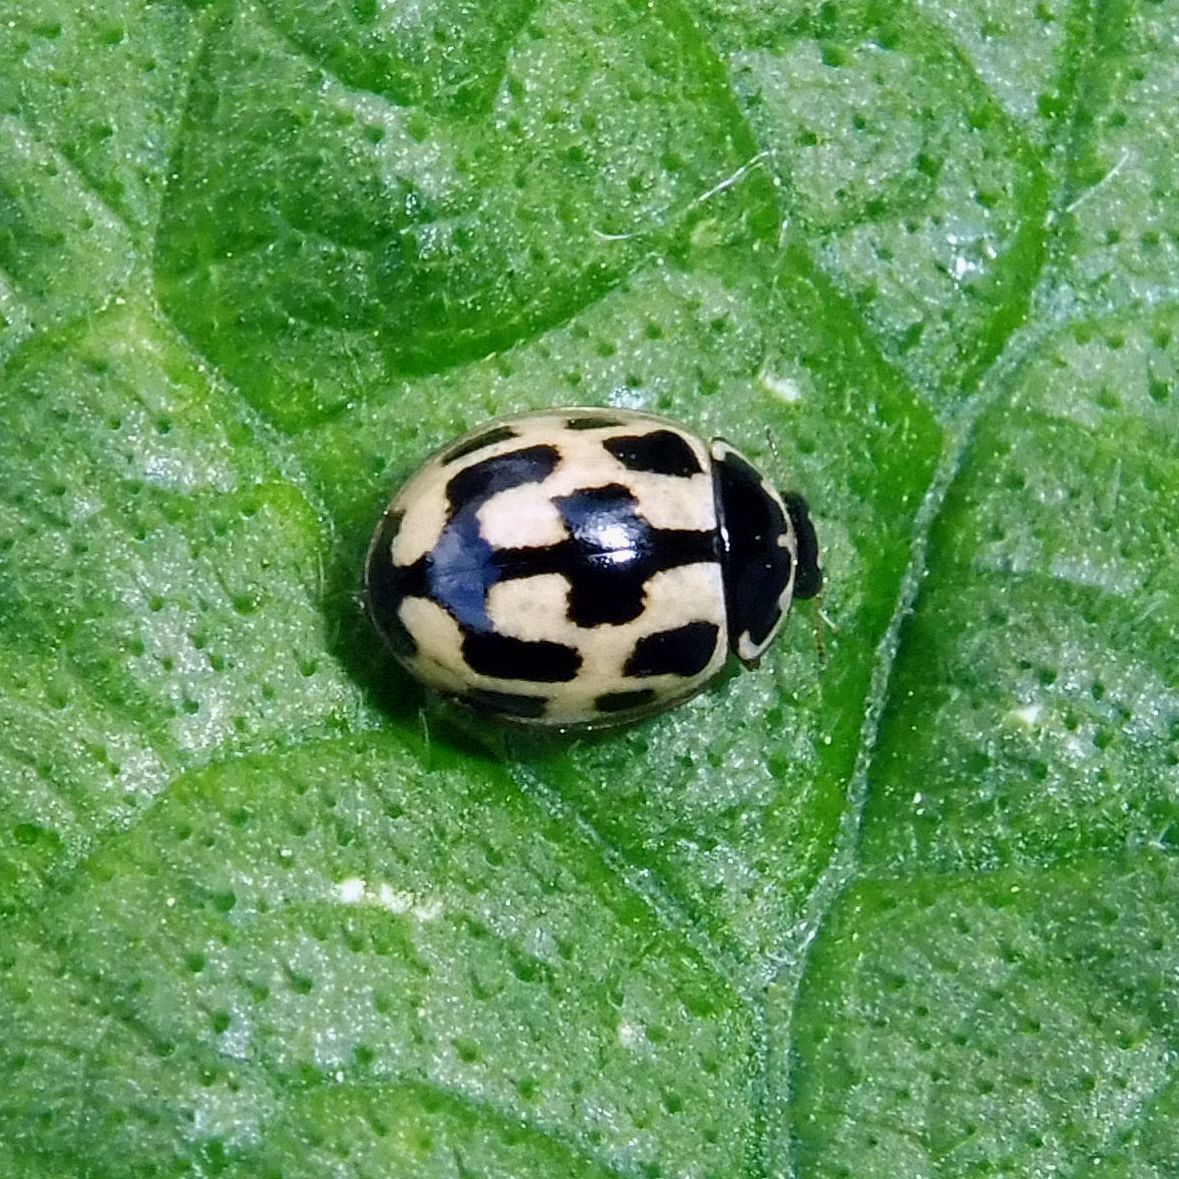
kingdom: Animalia
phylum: Arthropoda
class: Insecta
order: Coleoptera
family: Coccinellidae
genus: Propylaea
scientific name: Propylaea quatuordecimpunctata
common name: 14-spotted ladybird beetle
